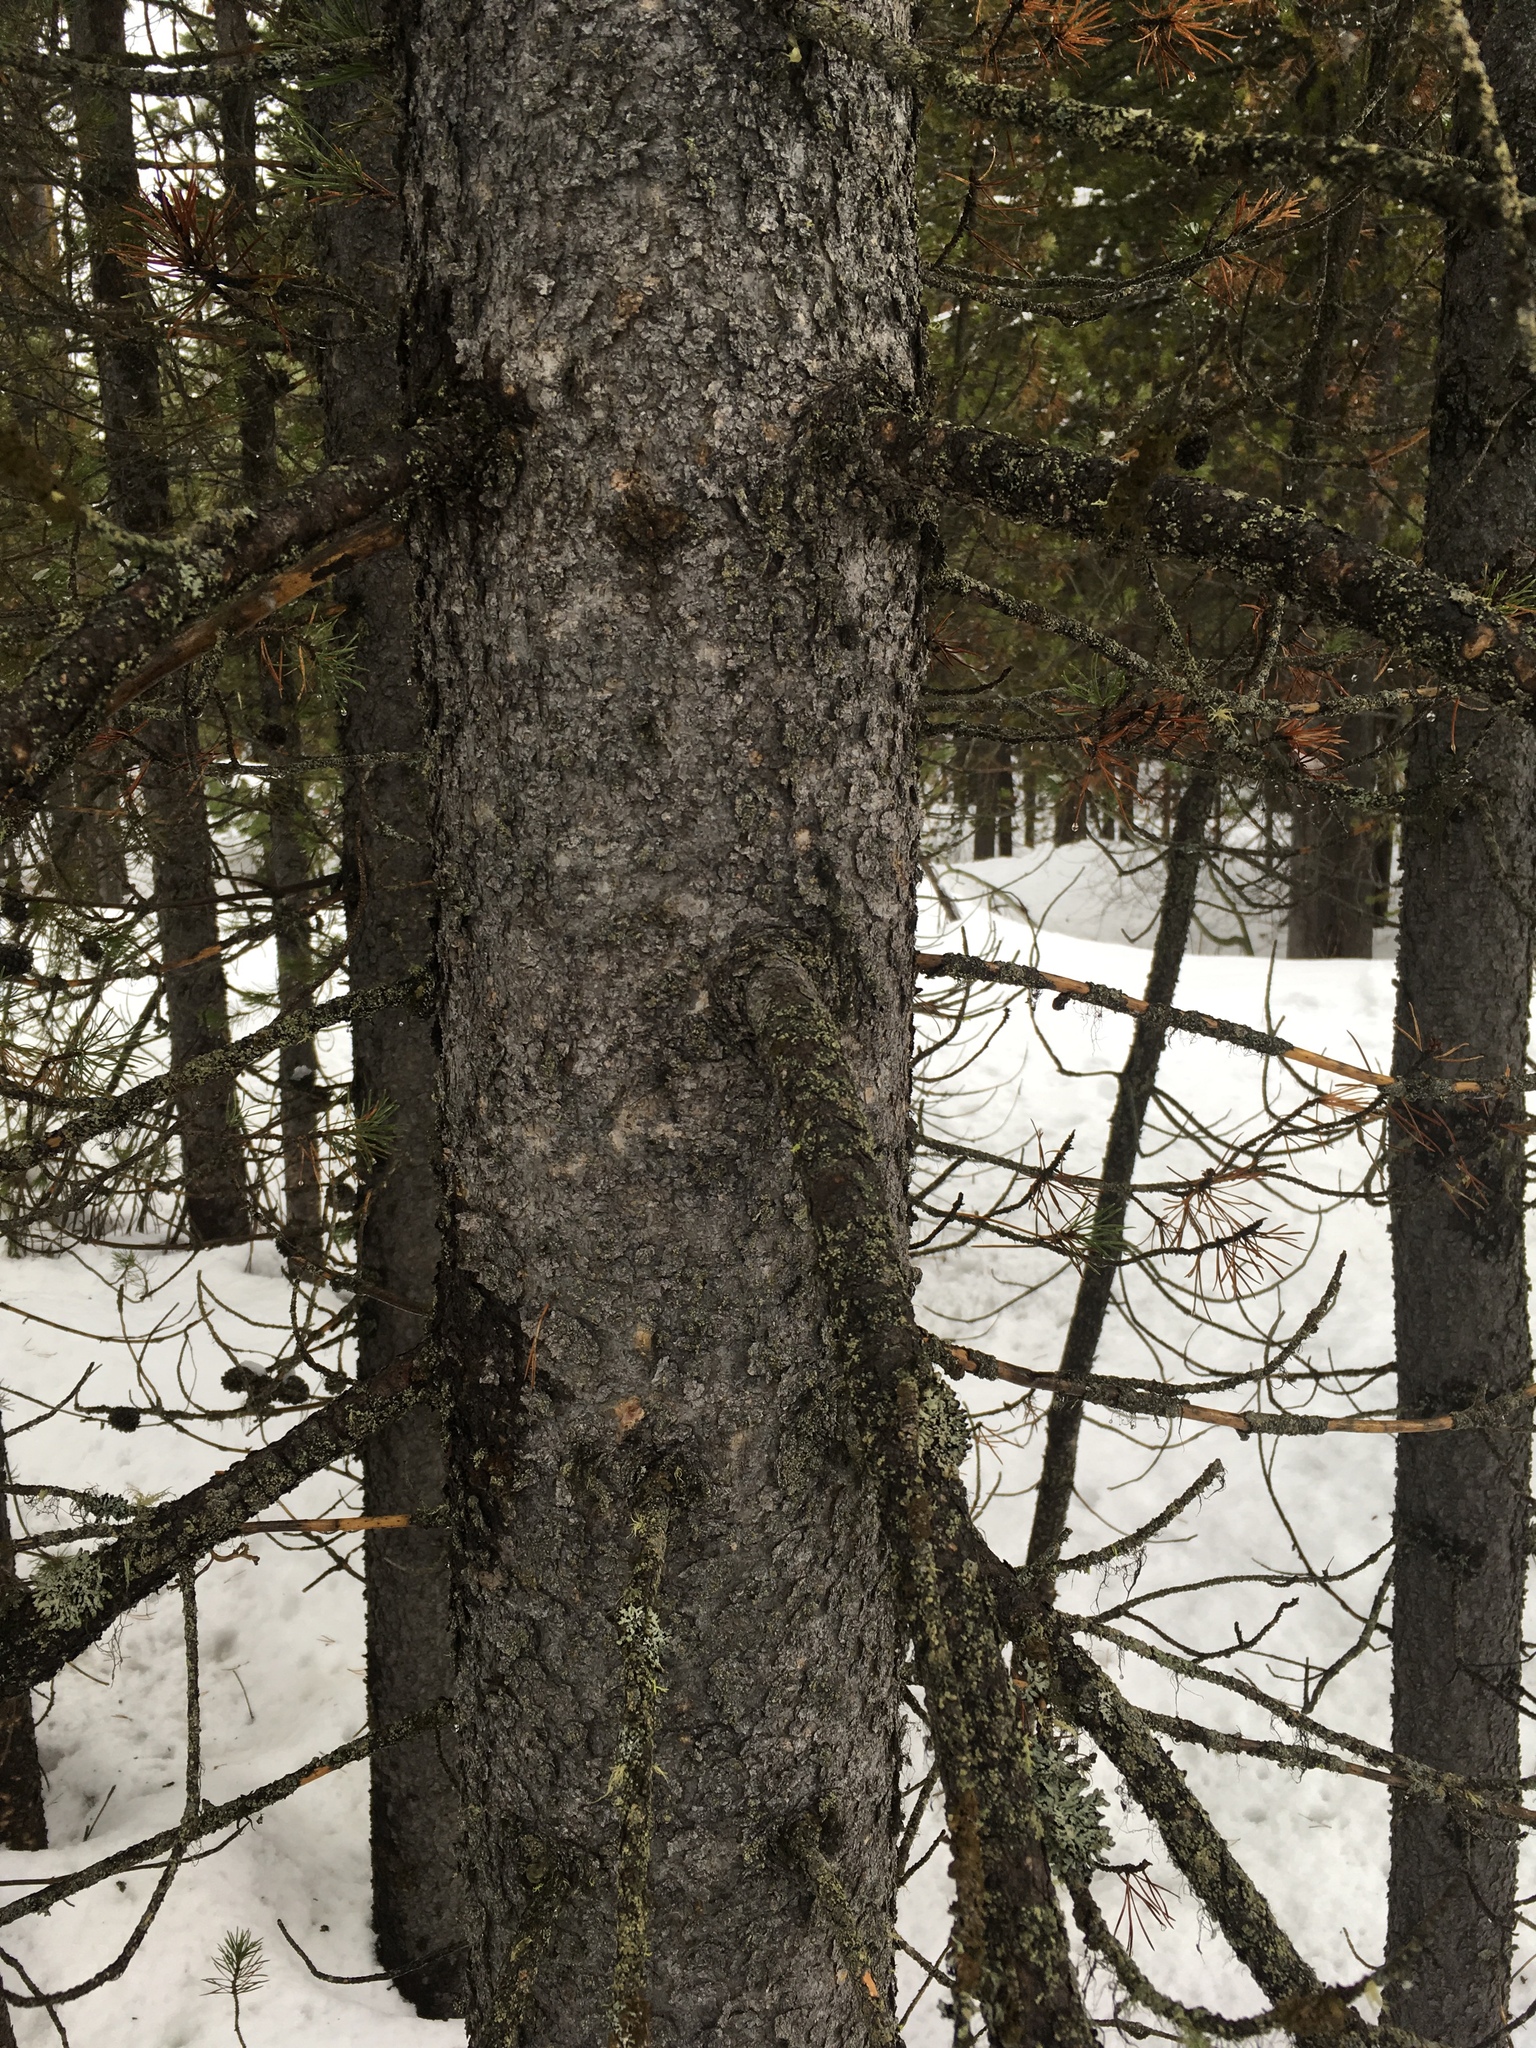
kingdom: Plantae
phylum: Tracheophyta
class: Pinopsida
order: Pinales
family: Pinaceae
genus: Pinus
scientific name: Pinus contorta
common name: Lodgepole pine
